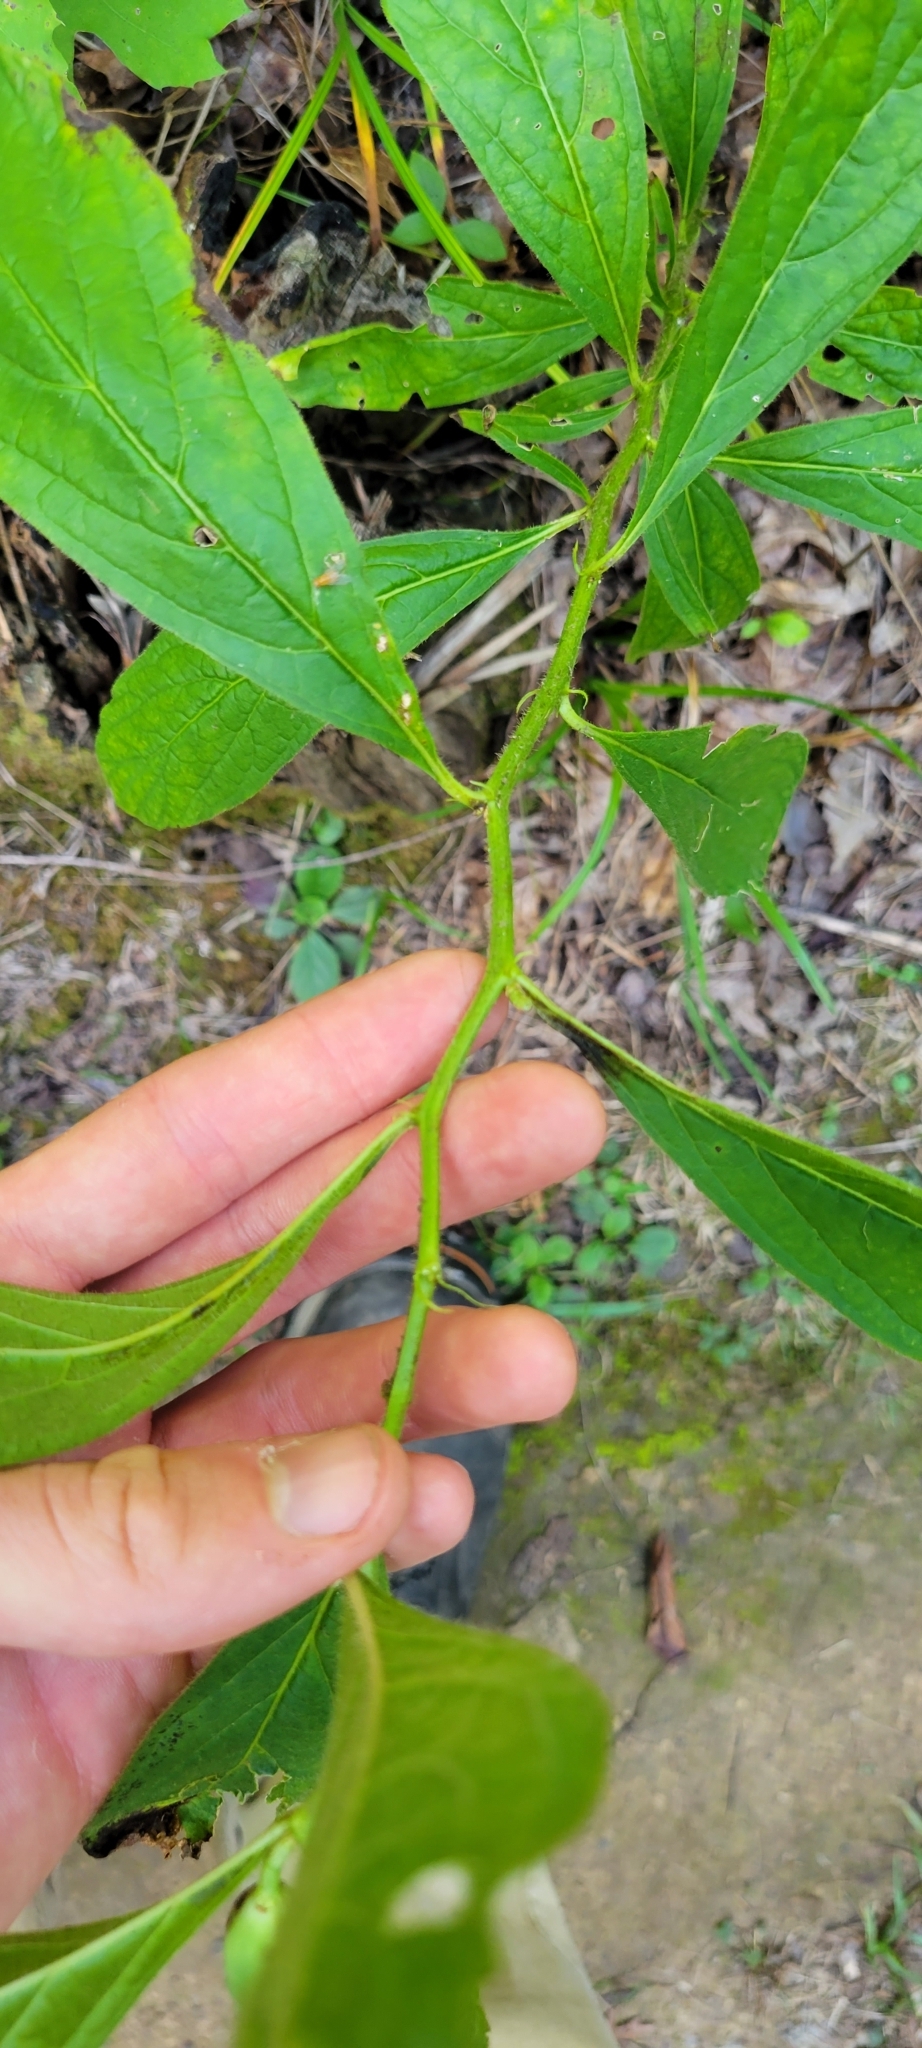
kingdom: Plantae
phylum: Tracheophyta
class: Magnoliopsida
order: Malpighiales
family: Violaceae
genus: Cubelium
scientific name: Cubelium concolor
